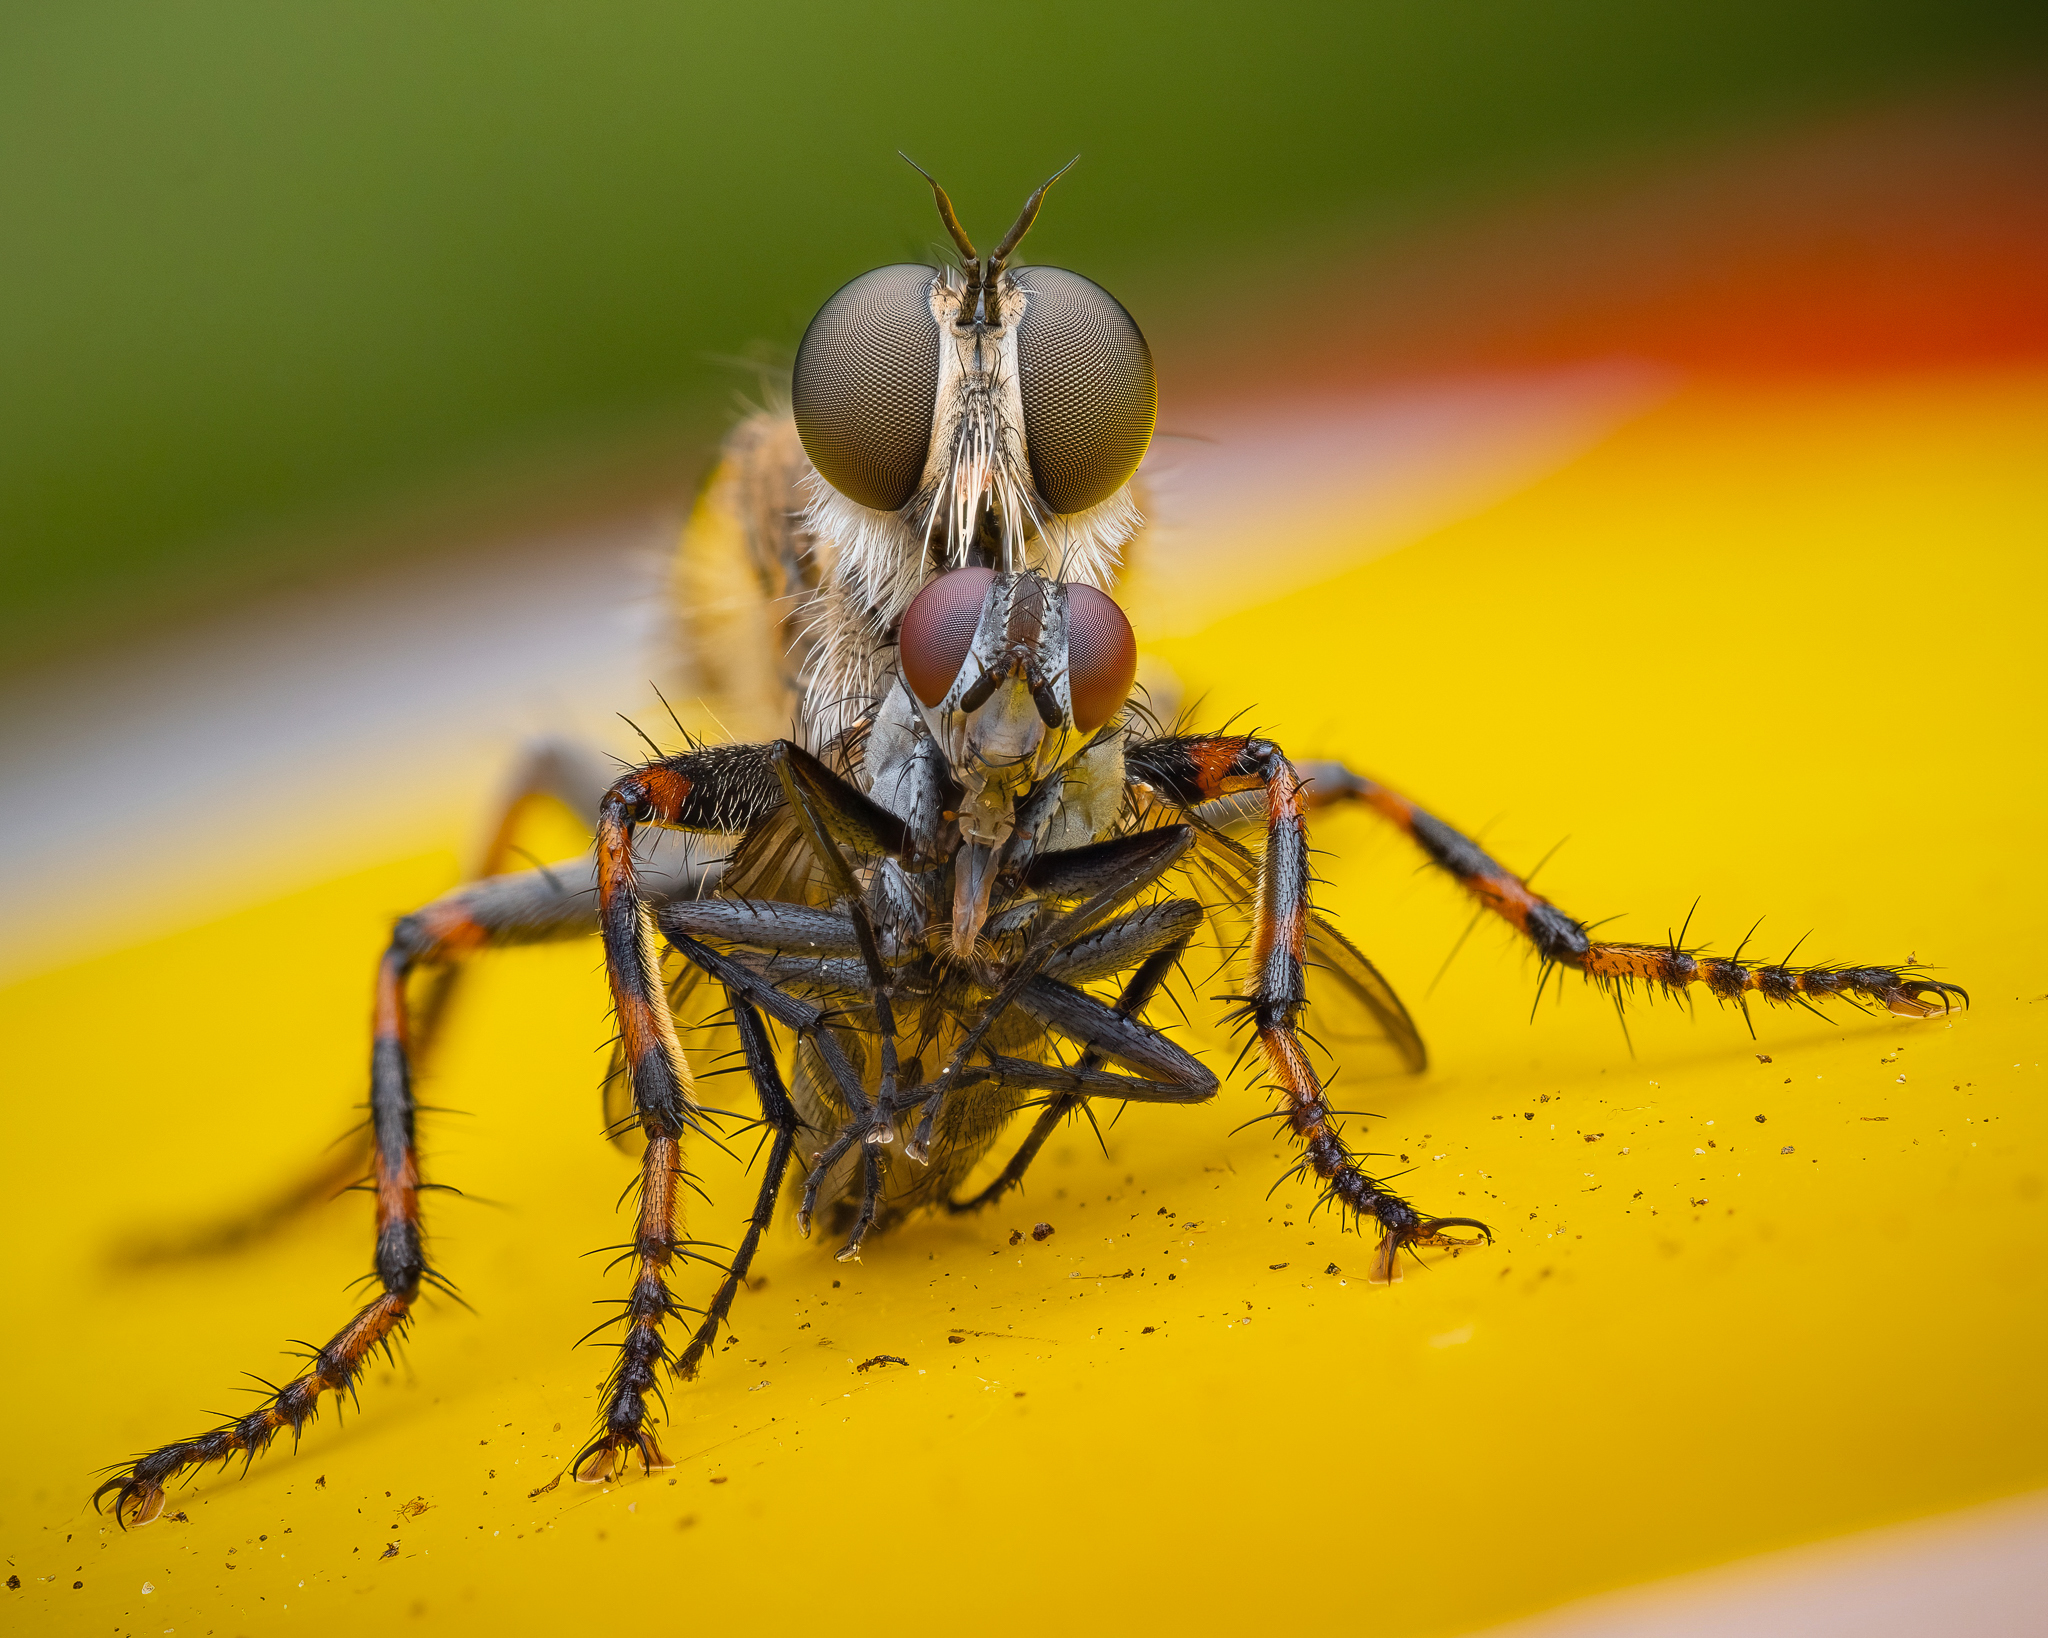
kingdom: Animalia
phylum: Arthropoda
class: Insecta
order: Diptera
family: Asilidae
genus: Epitriptus
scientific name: Epitriptus cingulatus
